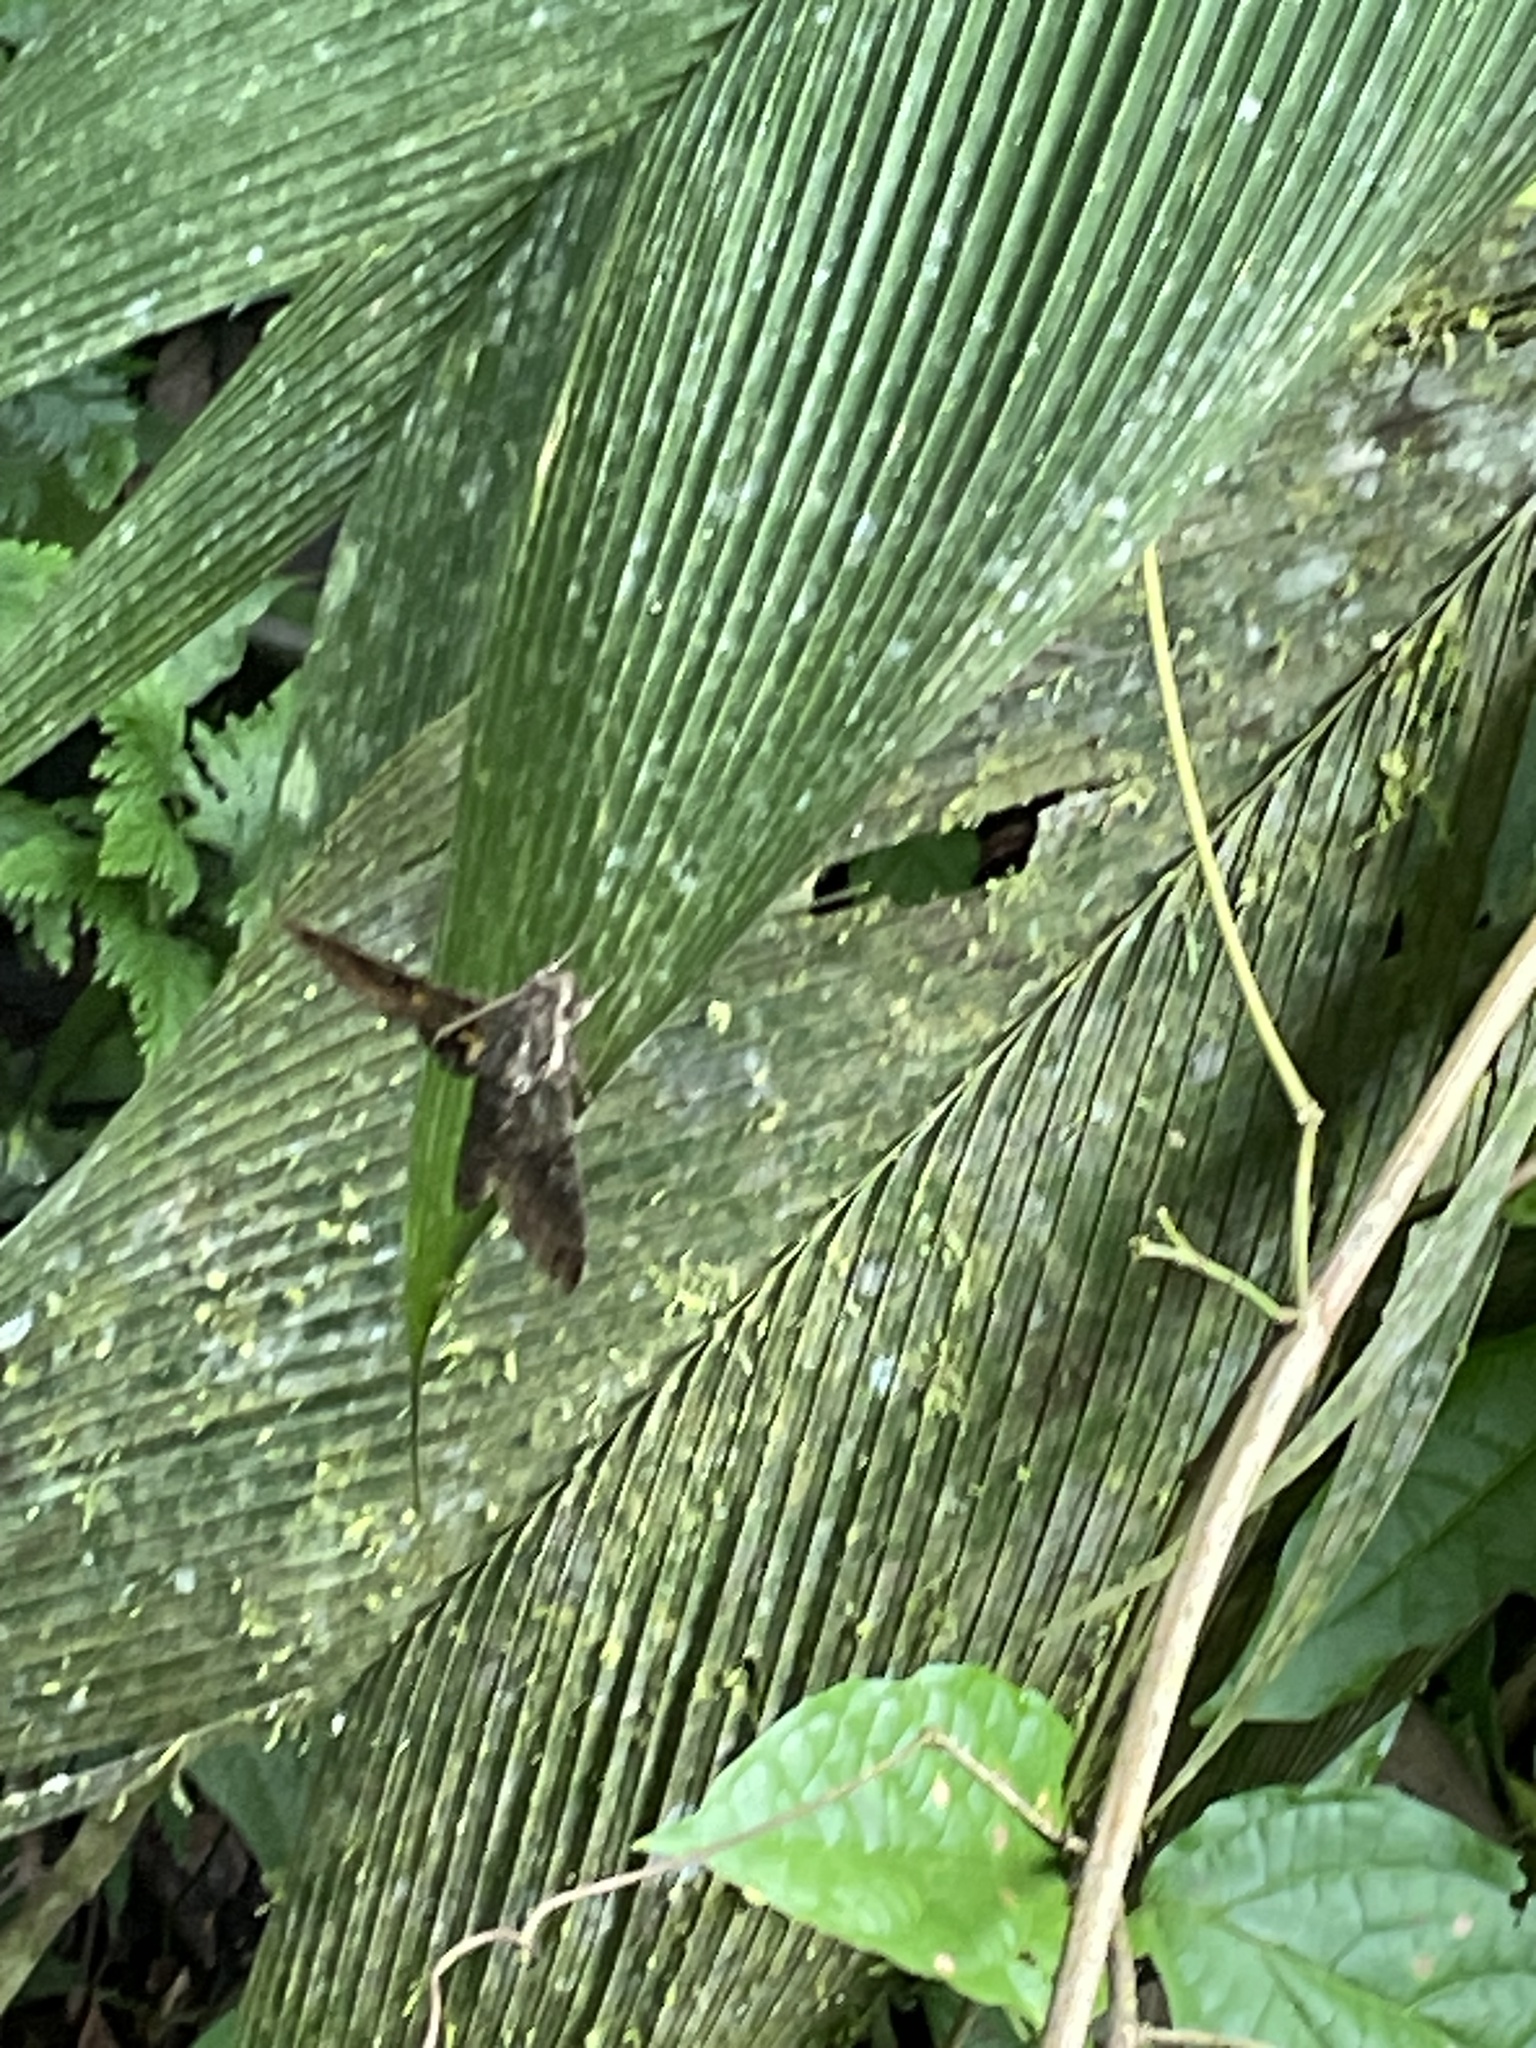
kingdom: Animalia
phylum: Arthropoda
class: Insecta
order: Lepidoptera
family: Sphingidae
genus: Cocytius
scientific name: Cocytius duponchel
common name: Duponchel's sphinx
